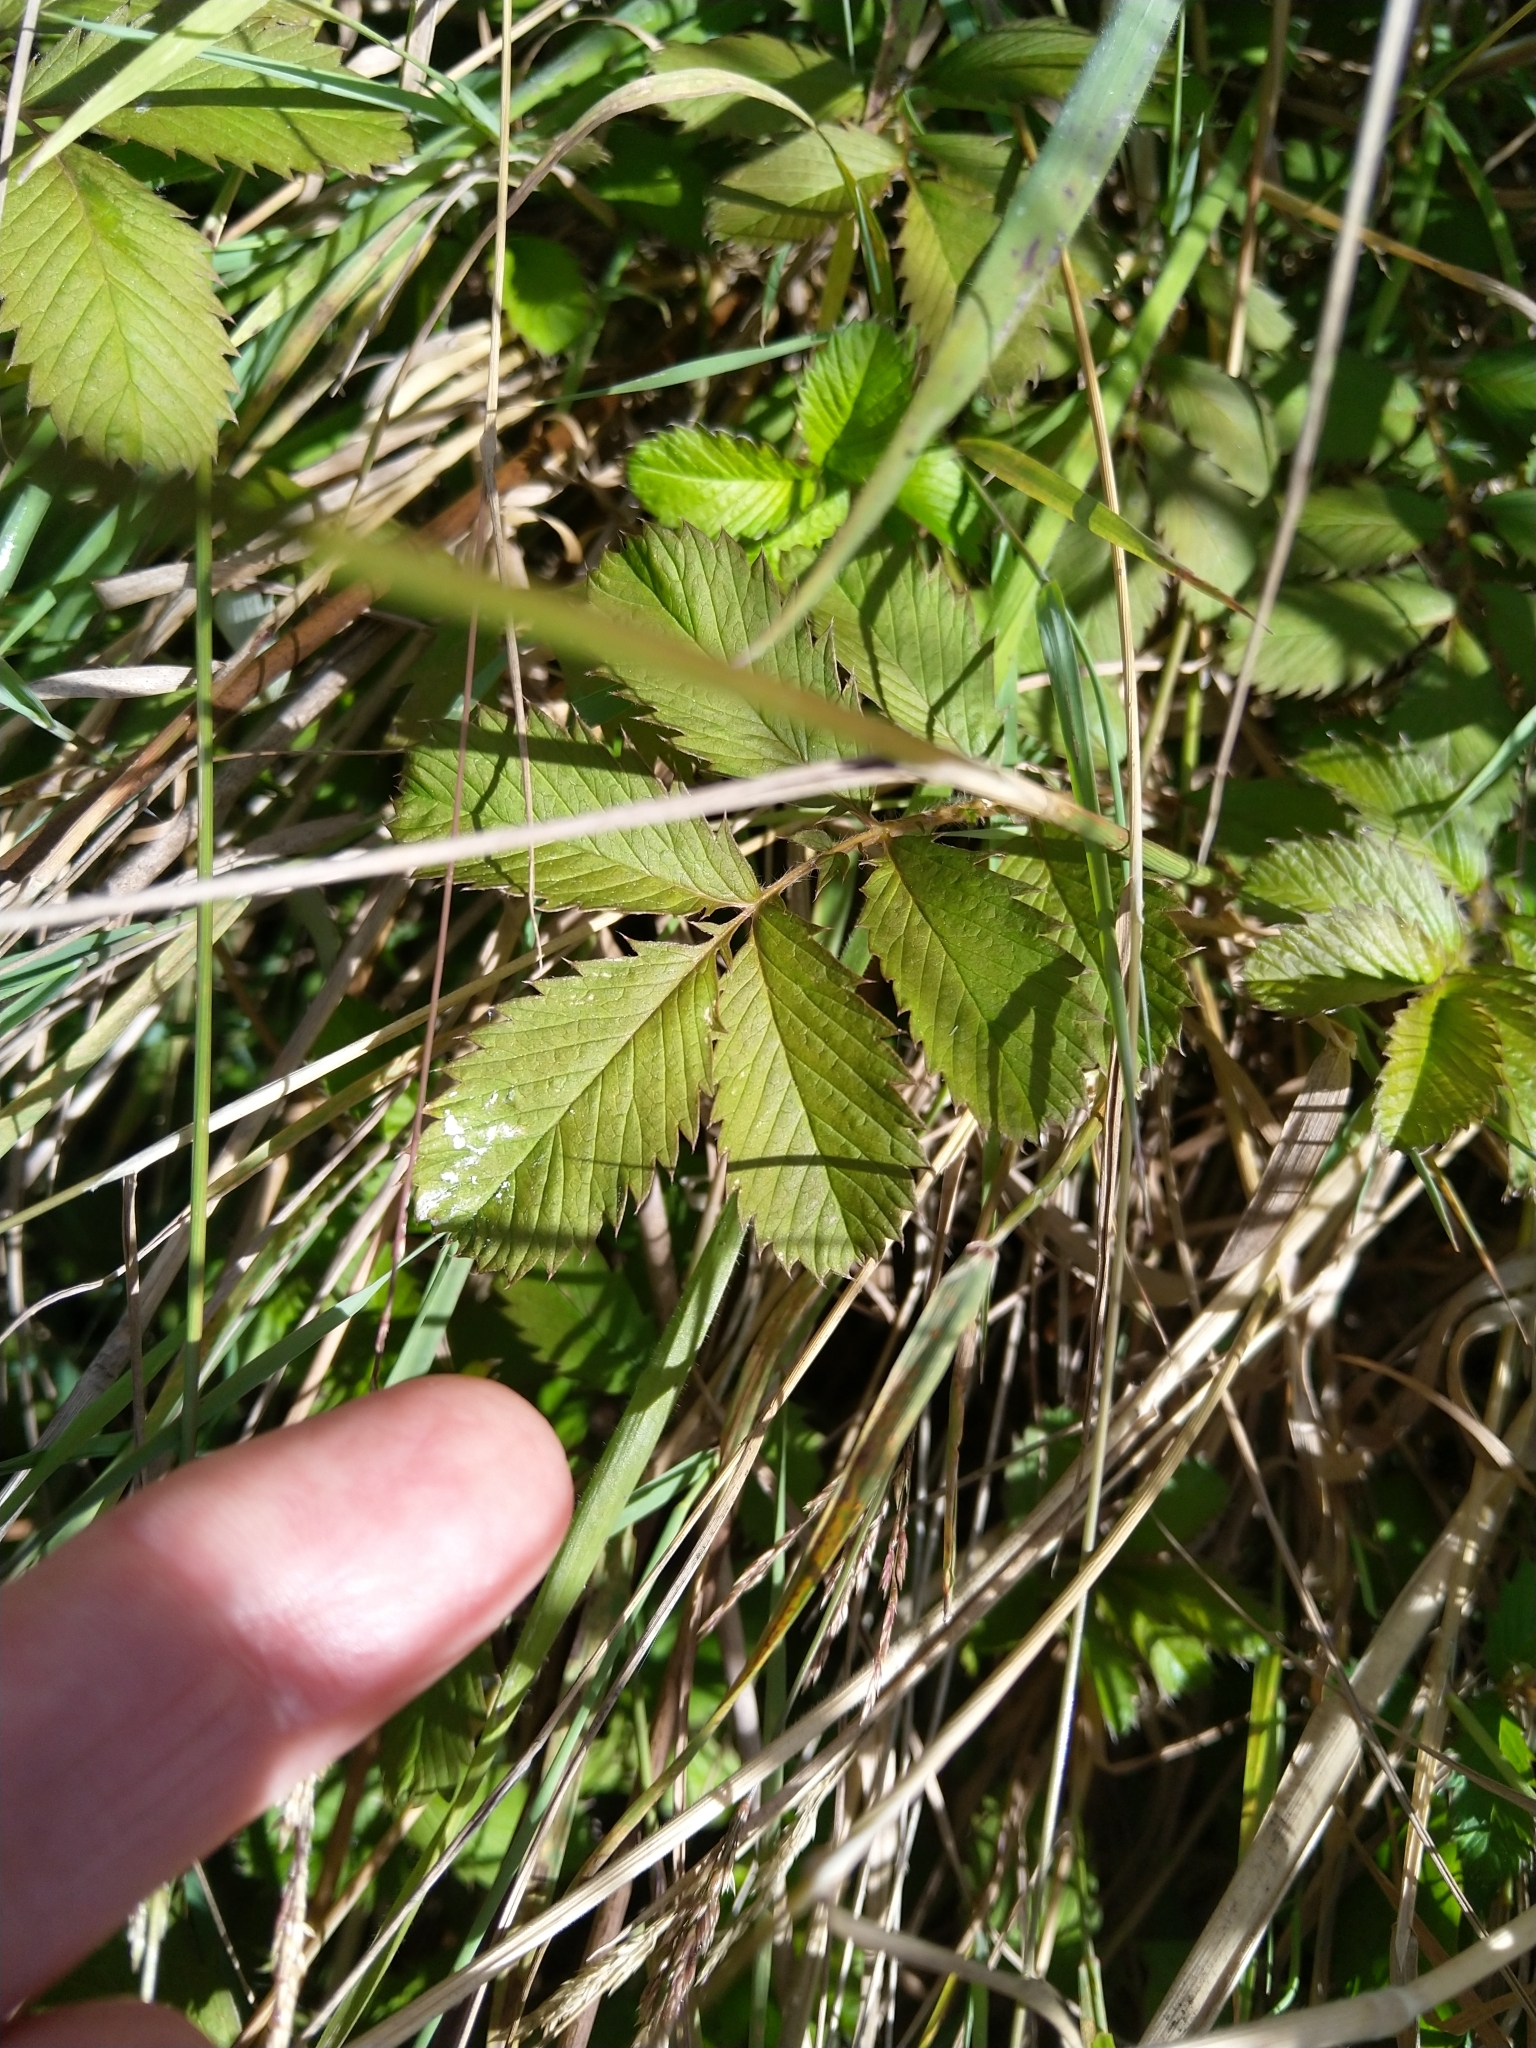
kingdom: Plantae
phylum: Tracheophyta
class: Magnoliopsida
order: Rosales
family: Rosaceae
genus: Argentina
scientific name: Argentina anserinoides
